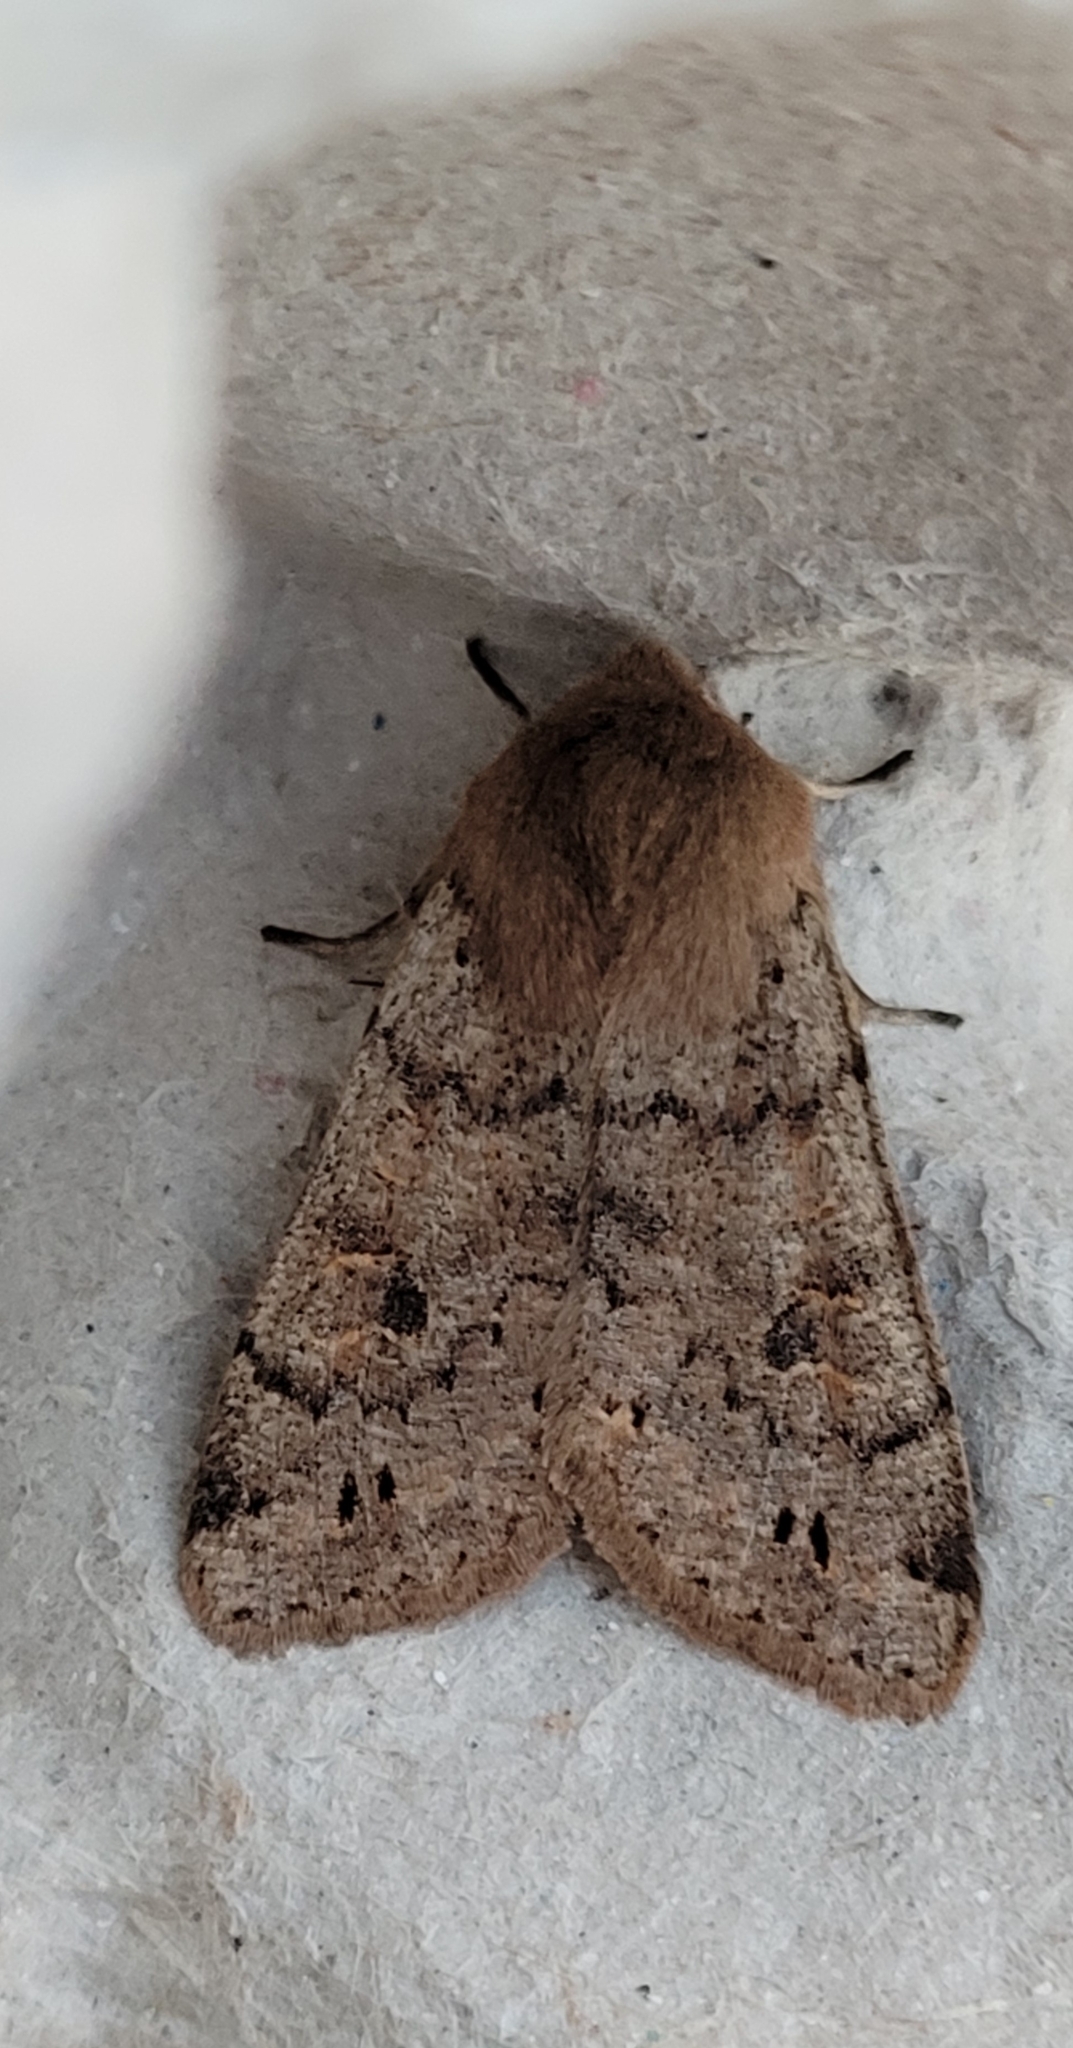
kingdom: Animalia
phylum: Arthropoda
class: Insecta
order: Lepidoptera
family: Noctuidae
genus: Anorthoa
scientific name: Anorthoa munda
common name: Twin-spotted quaker
